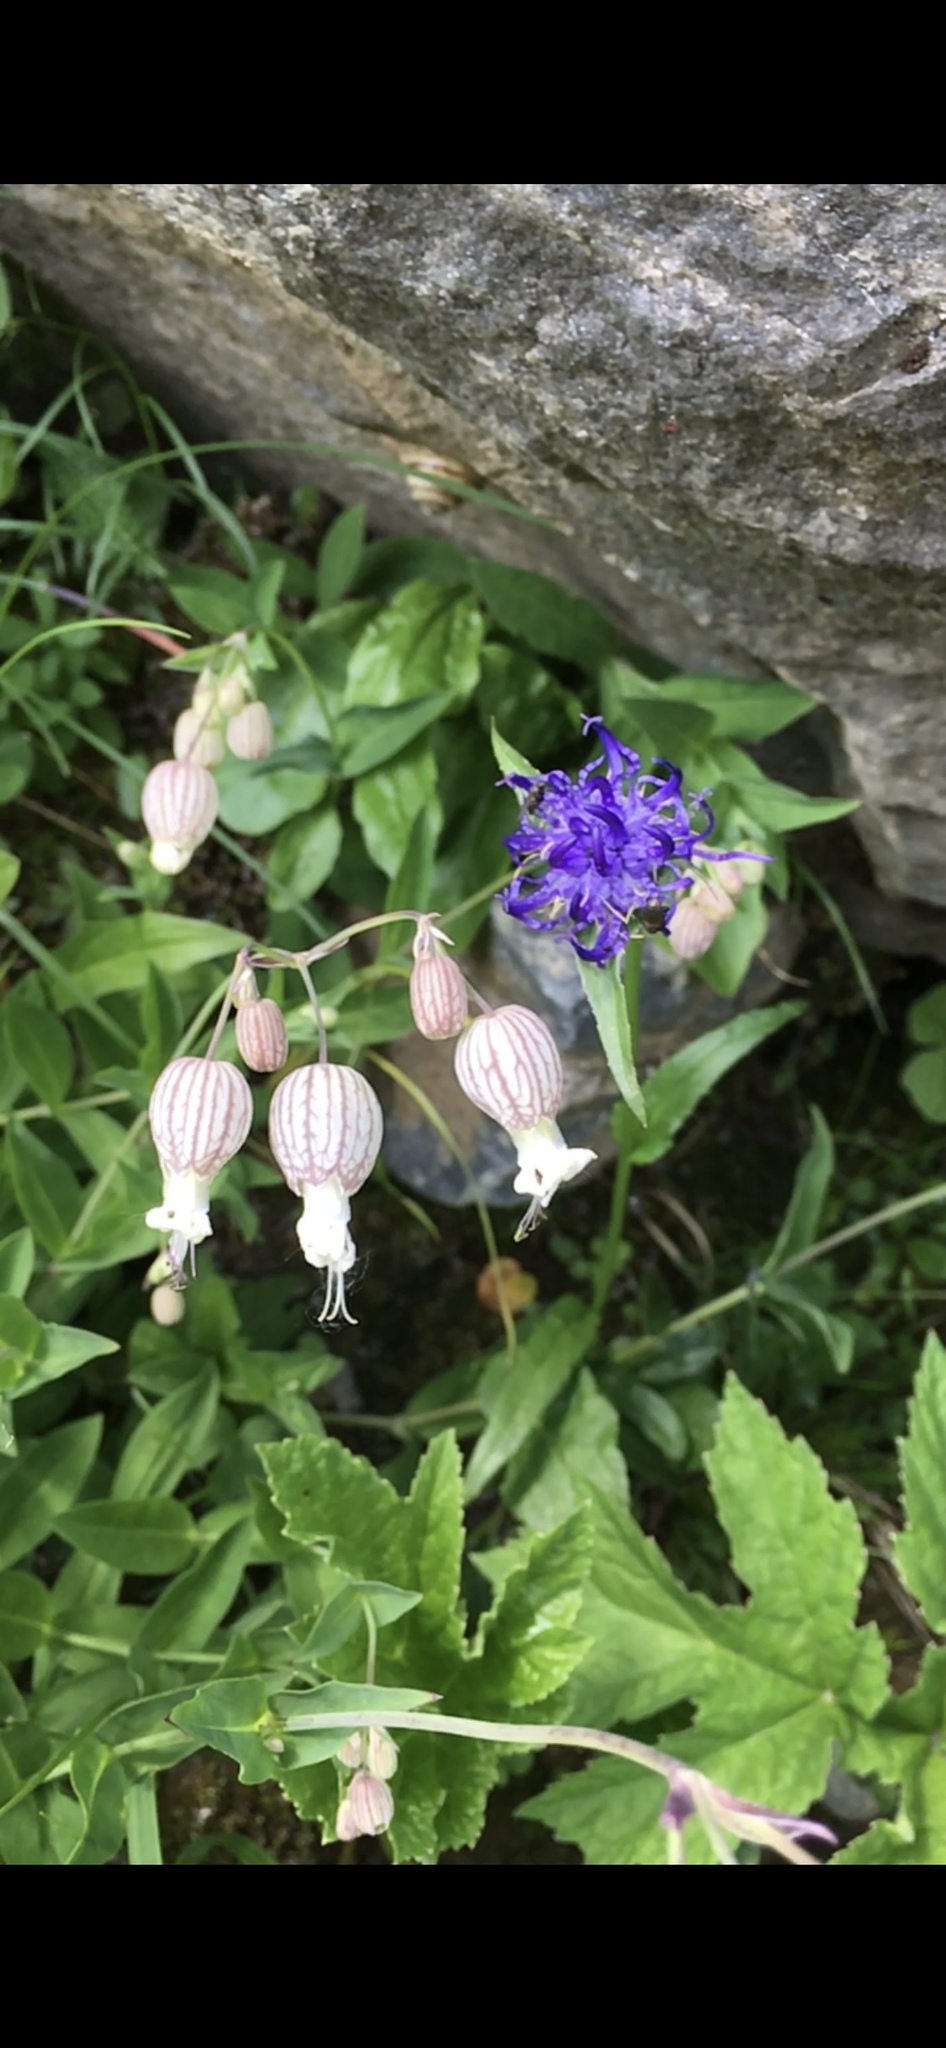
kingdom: Plantae
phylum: Tracheophyta
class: Magnoliopsida
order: Caryophyllales
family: Caryophyllaceae
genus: Silene
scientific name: Silene vulgaris
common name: Bladder campion
